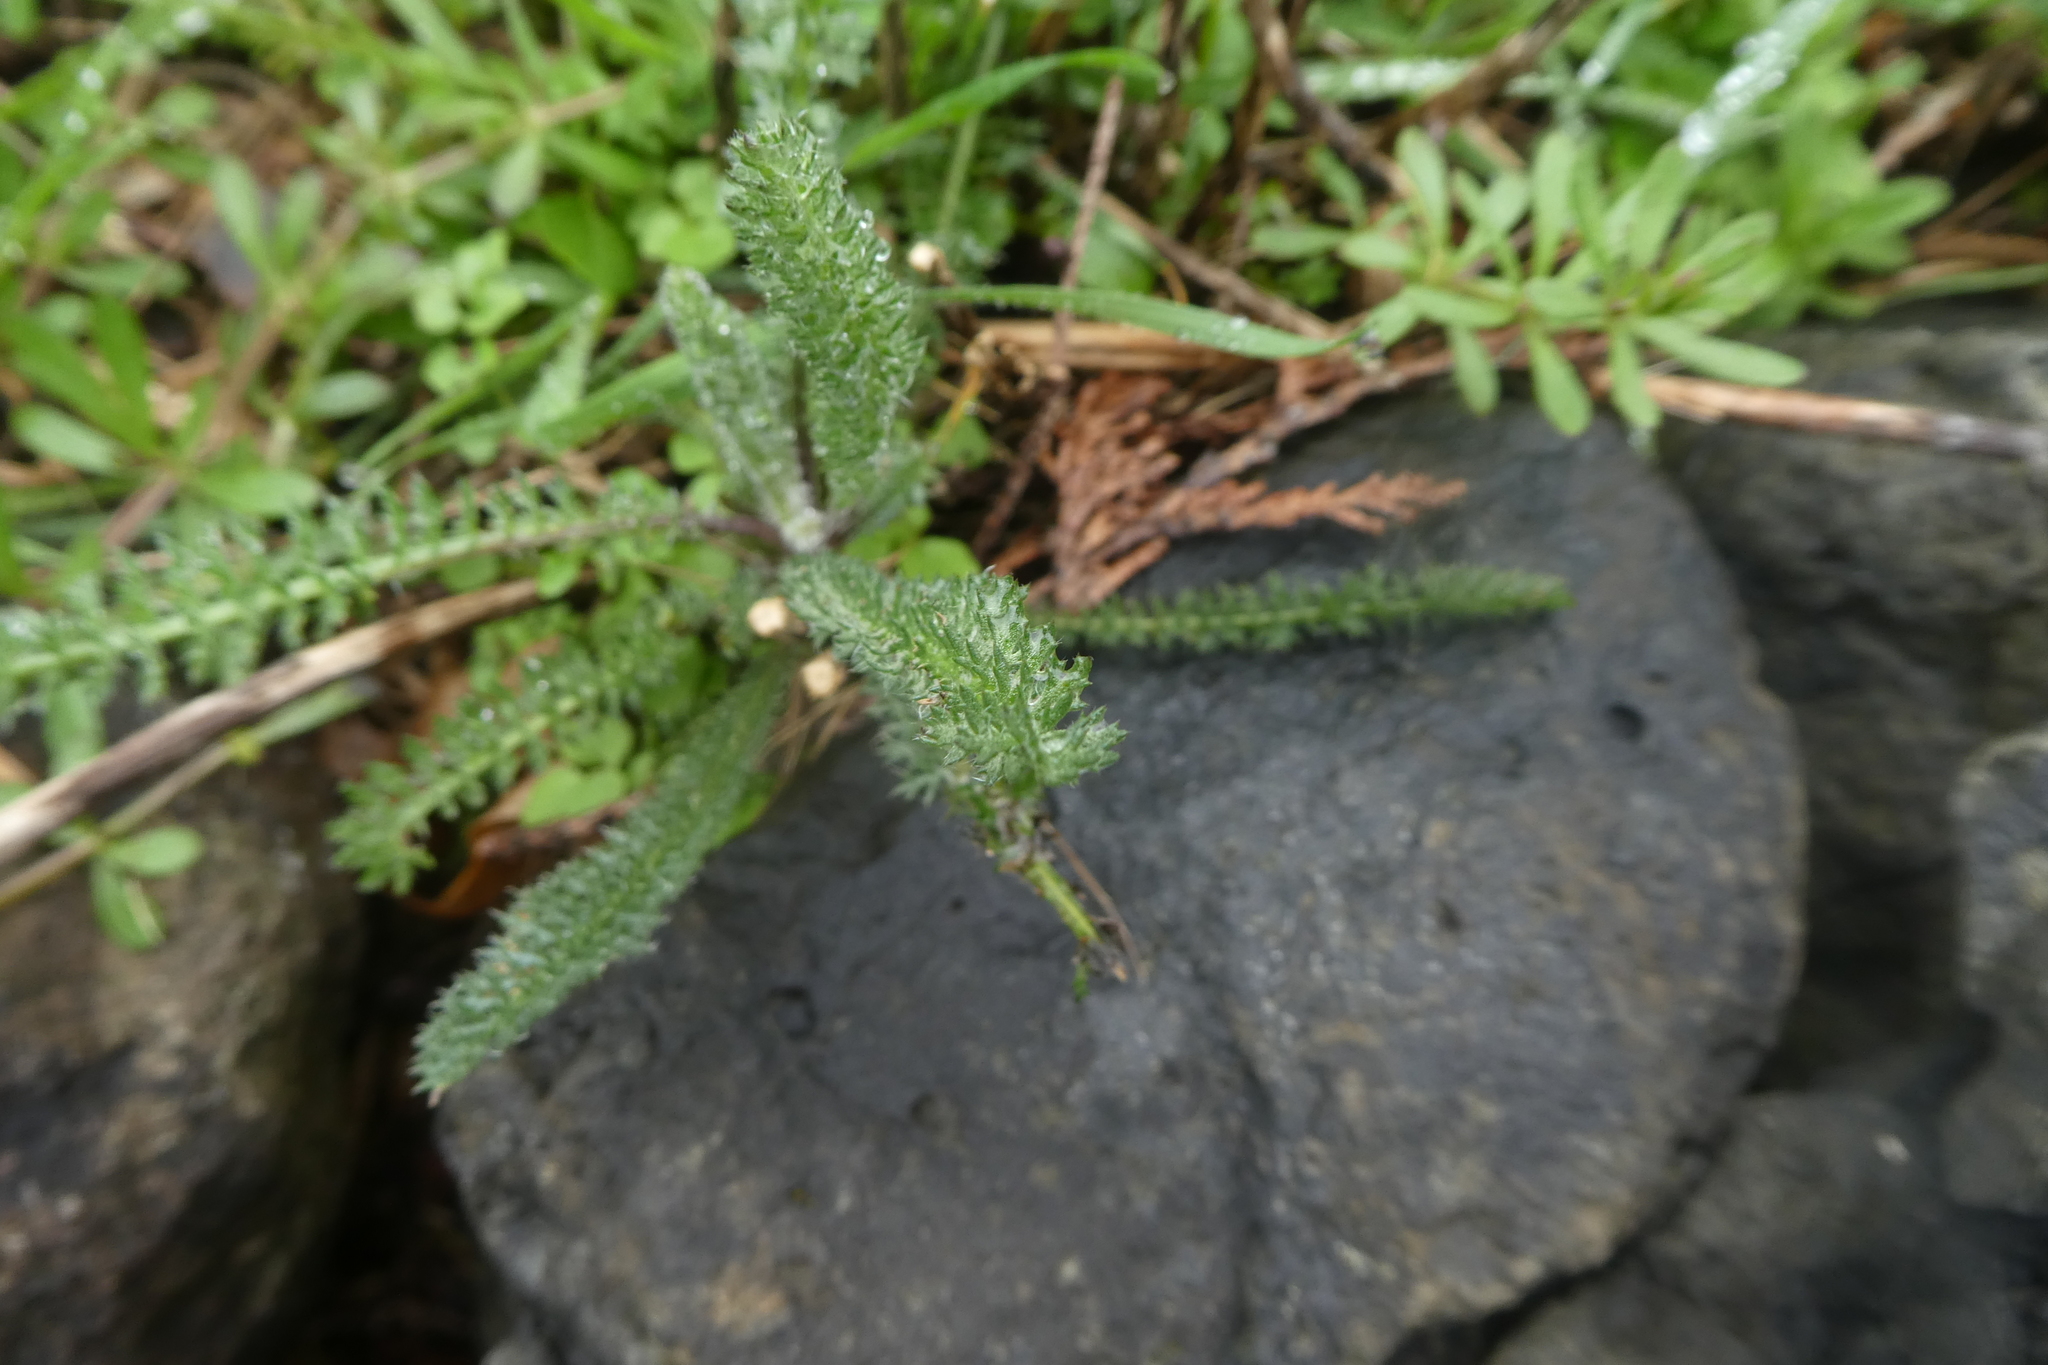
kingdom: Plantae
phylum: Tracheophyta
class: Magnoliopsida
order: Asterales
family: Asteraceae
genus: Achillea
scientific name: Achillea millefolium
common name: Yarrow
